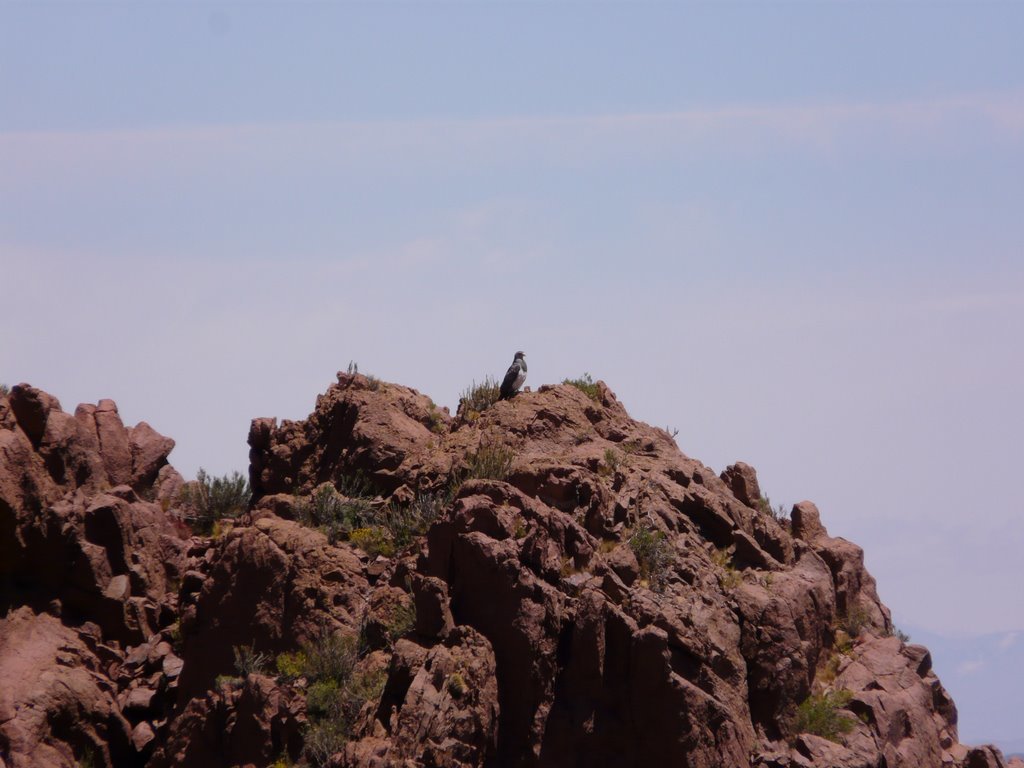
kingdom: Animalia
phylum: Chordata
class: Aves
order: Accipitriformes
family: Accipitridae
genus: Geranoaetus
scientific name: Geranoaetus melanoleucus
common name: Black-chested buzzard-eagle
